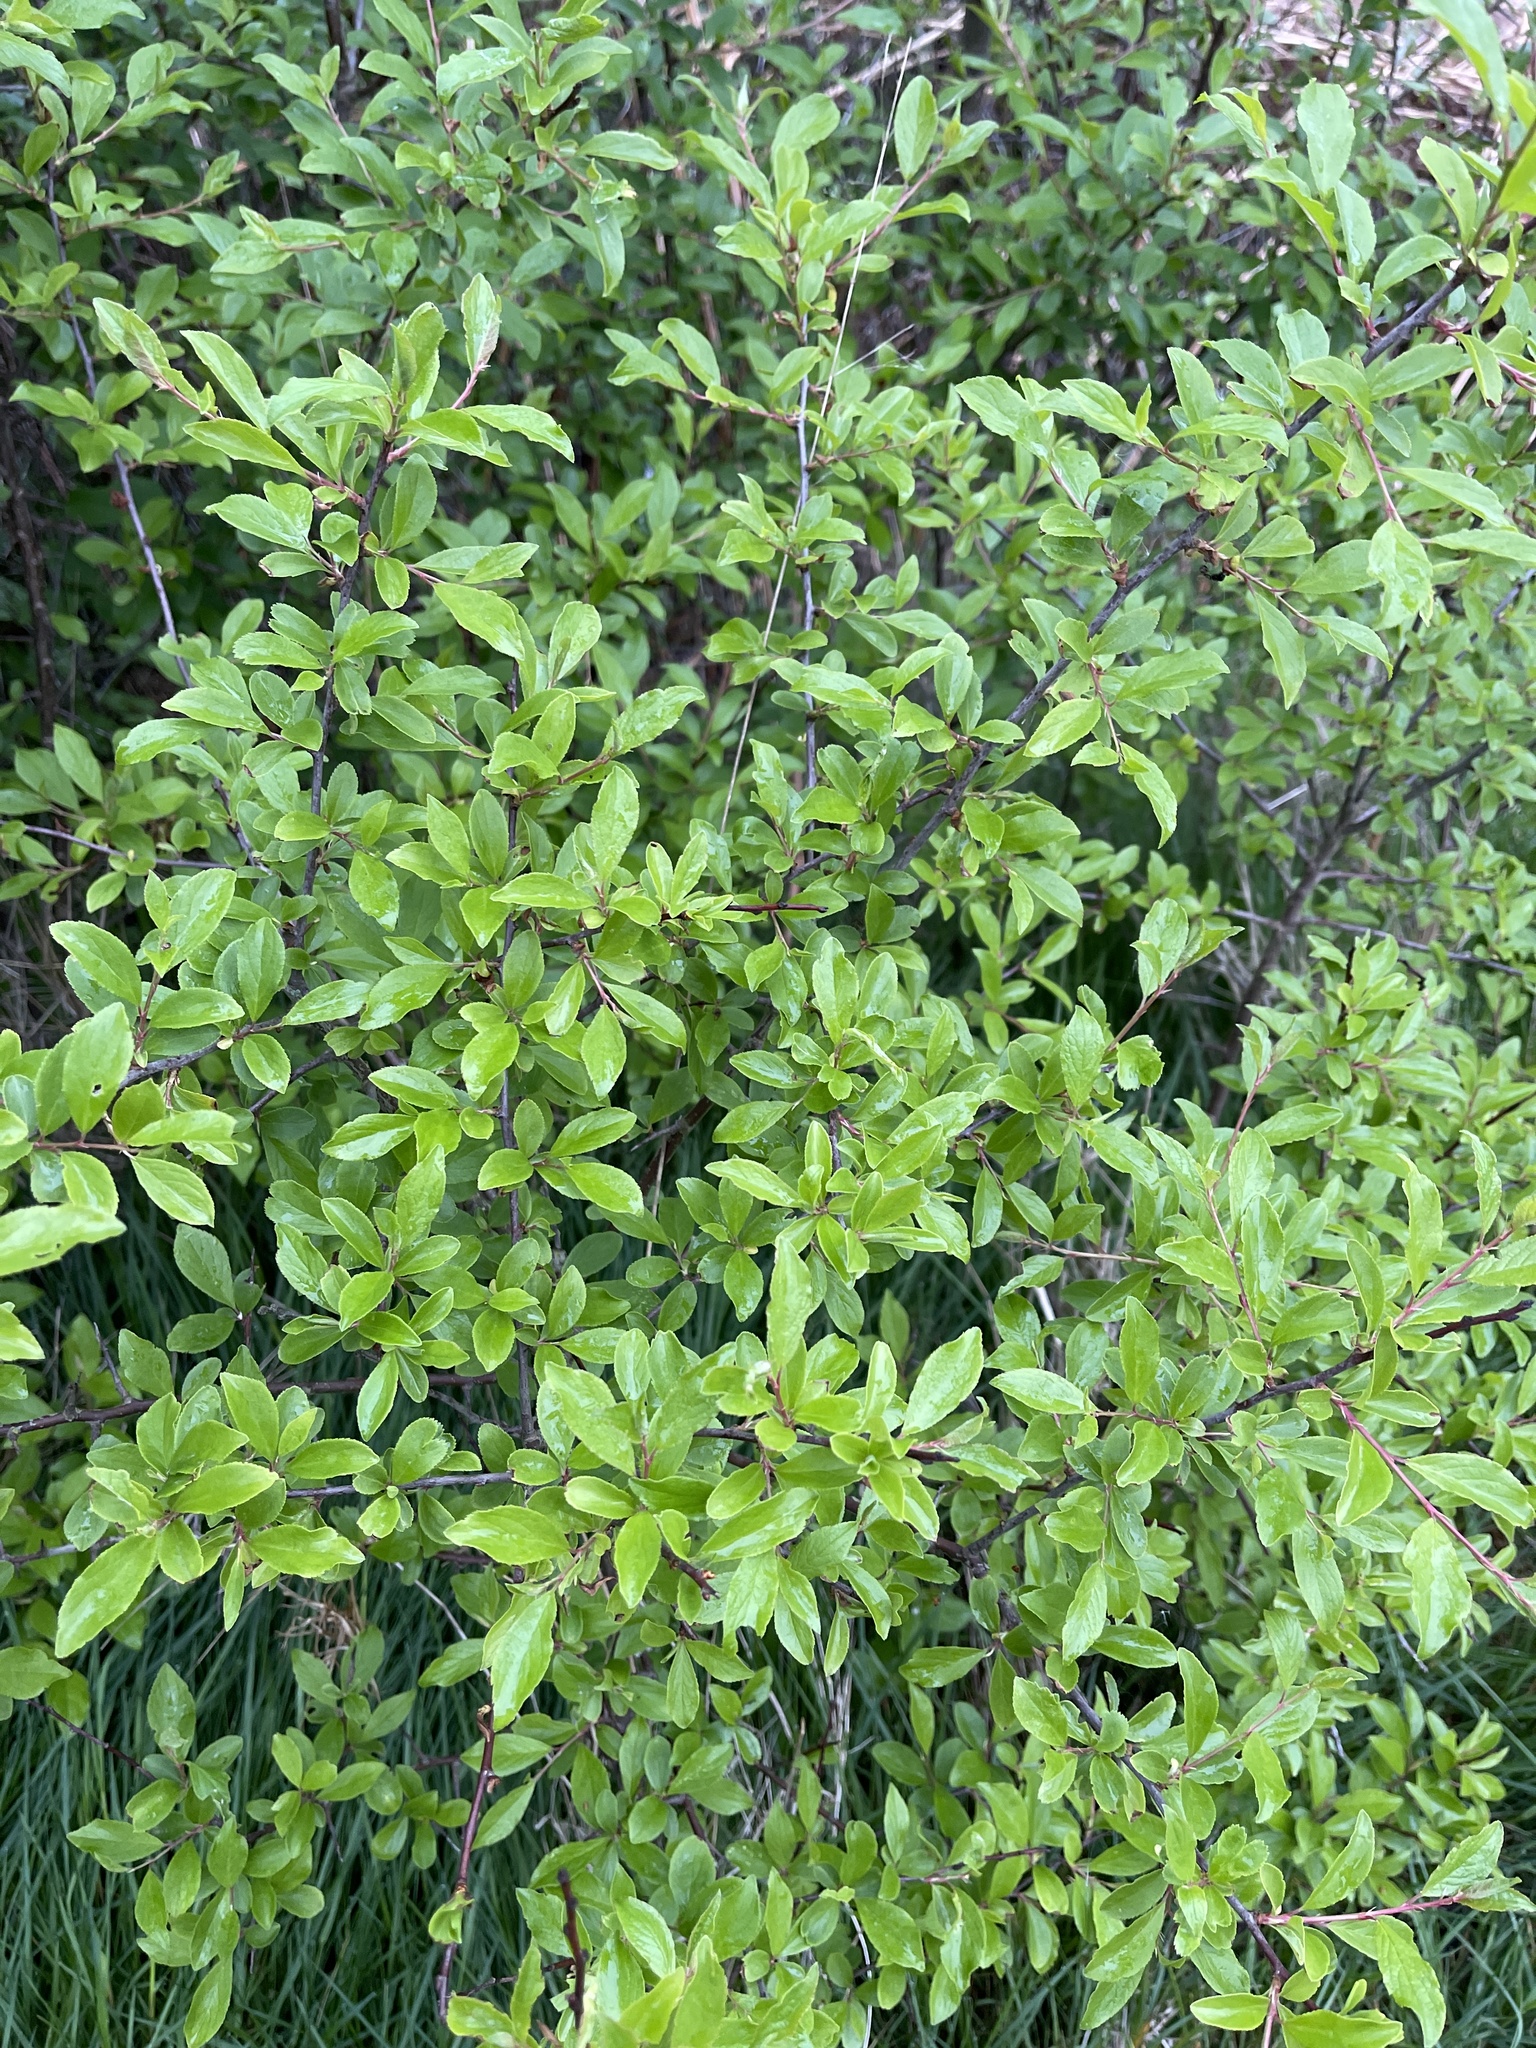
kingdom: Plantae
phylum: Tracheophyta
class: Magnoliopsida
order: Rosales
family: Rosaceae
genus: Prunus
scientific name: Prunus spinosa
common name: Blackthorn
